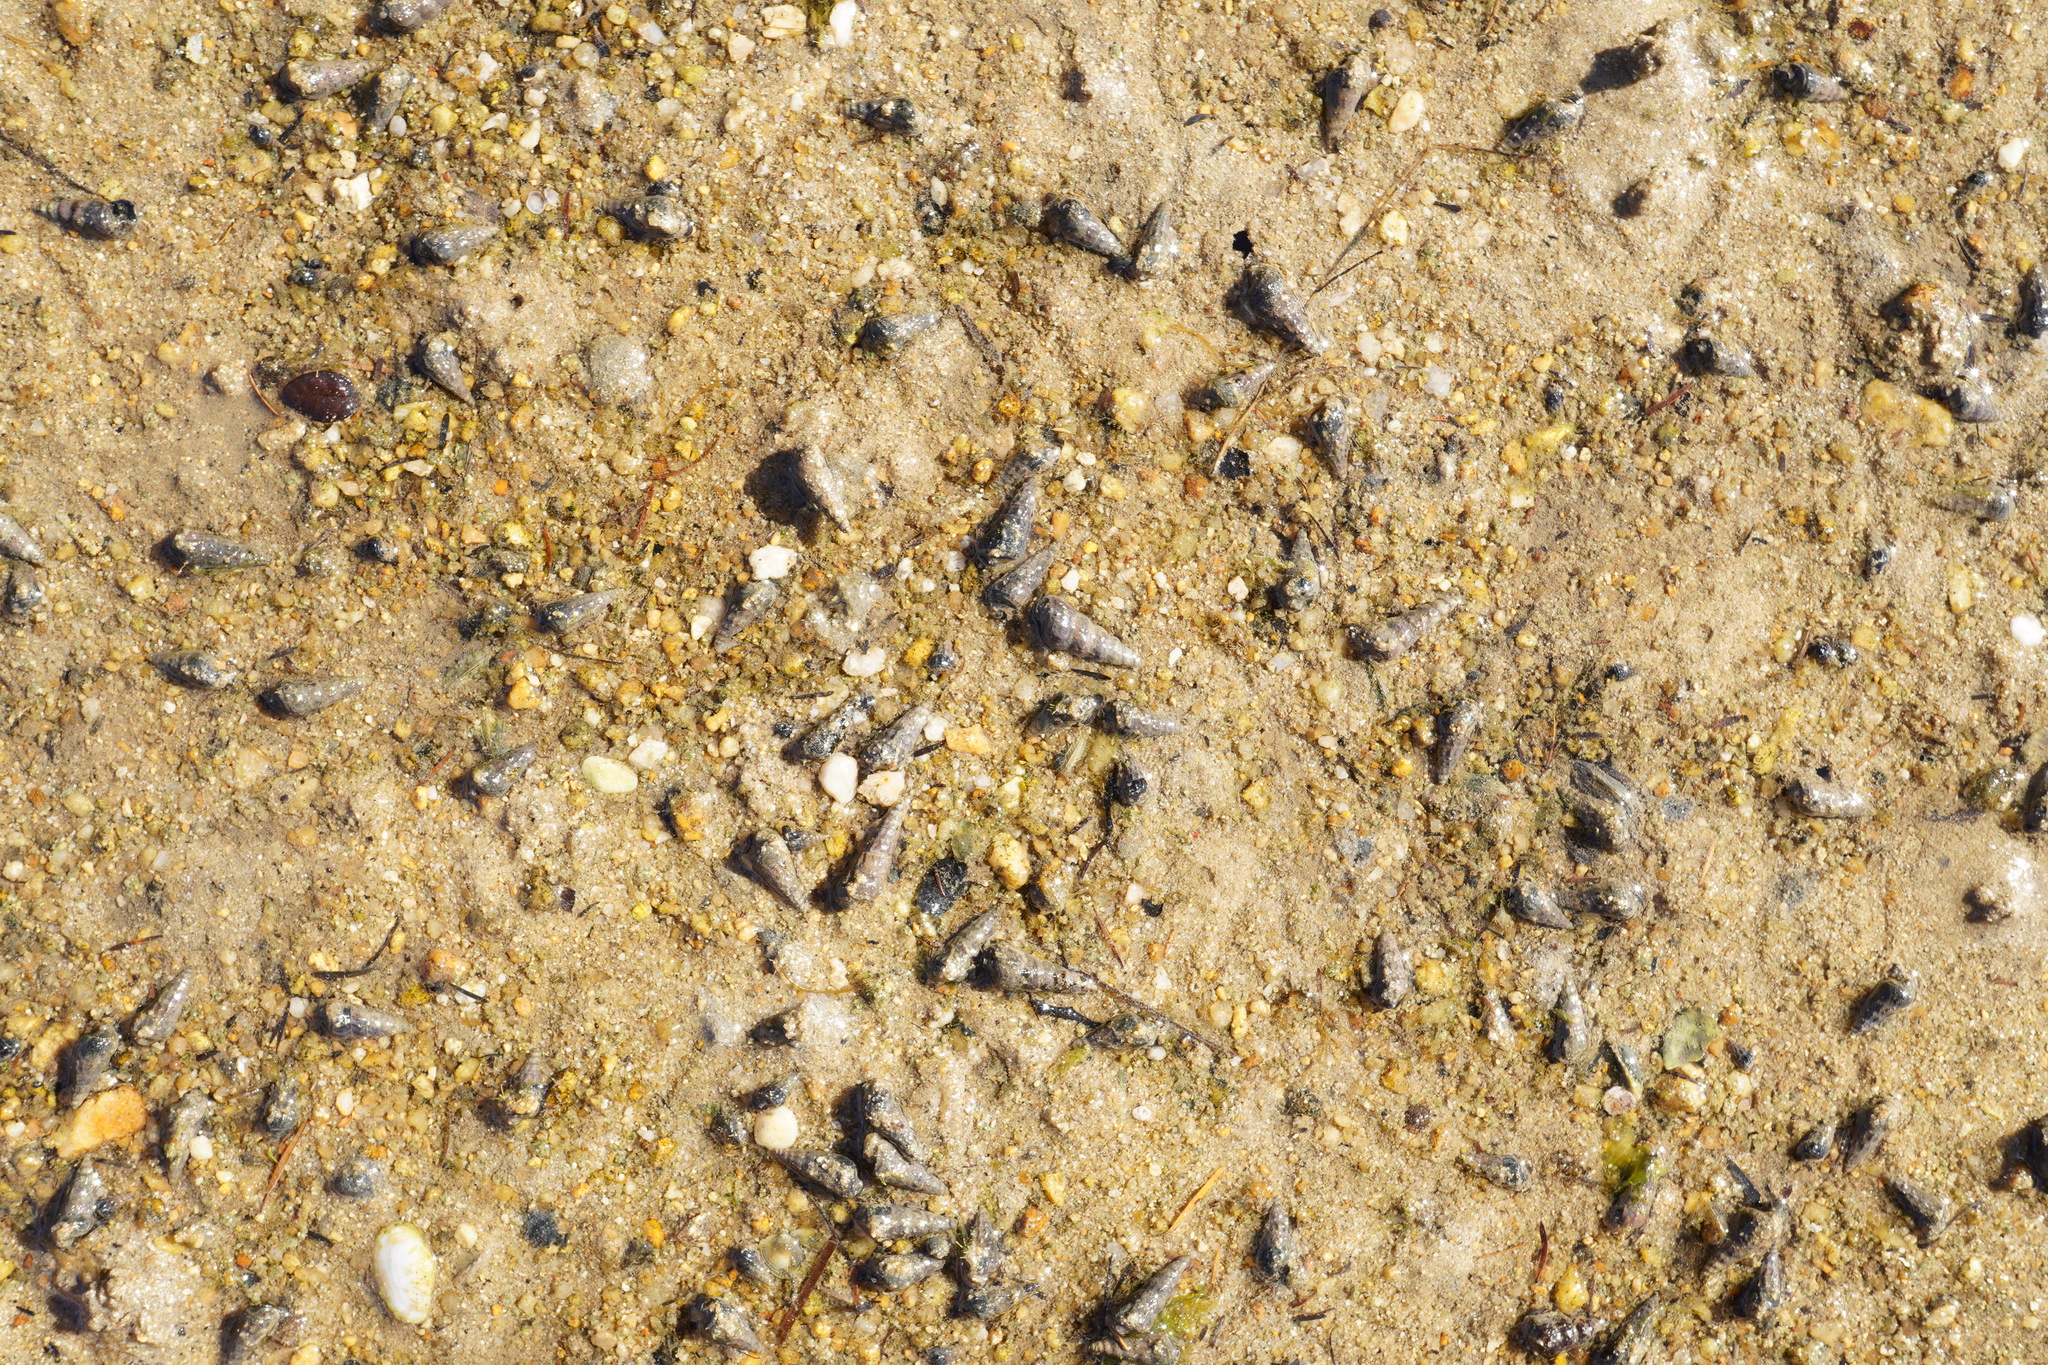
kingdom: Animalia
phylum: Mollusca
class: Gastropoda
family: Batillariidae
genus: Zeacumantus
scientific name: Zeacumantus lutulentus
